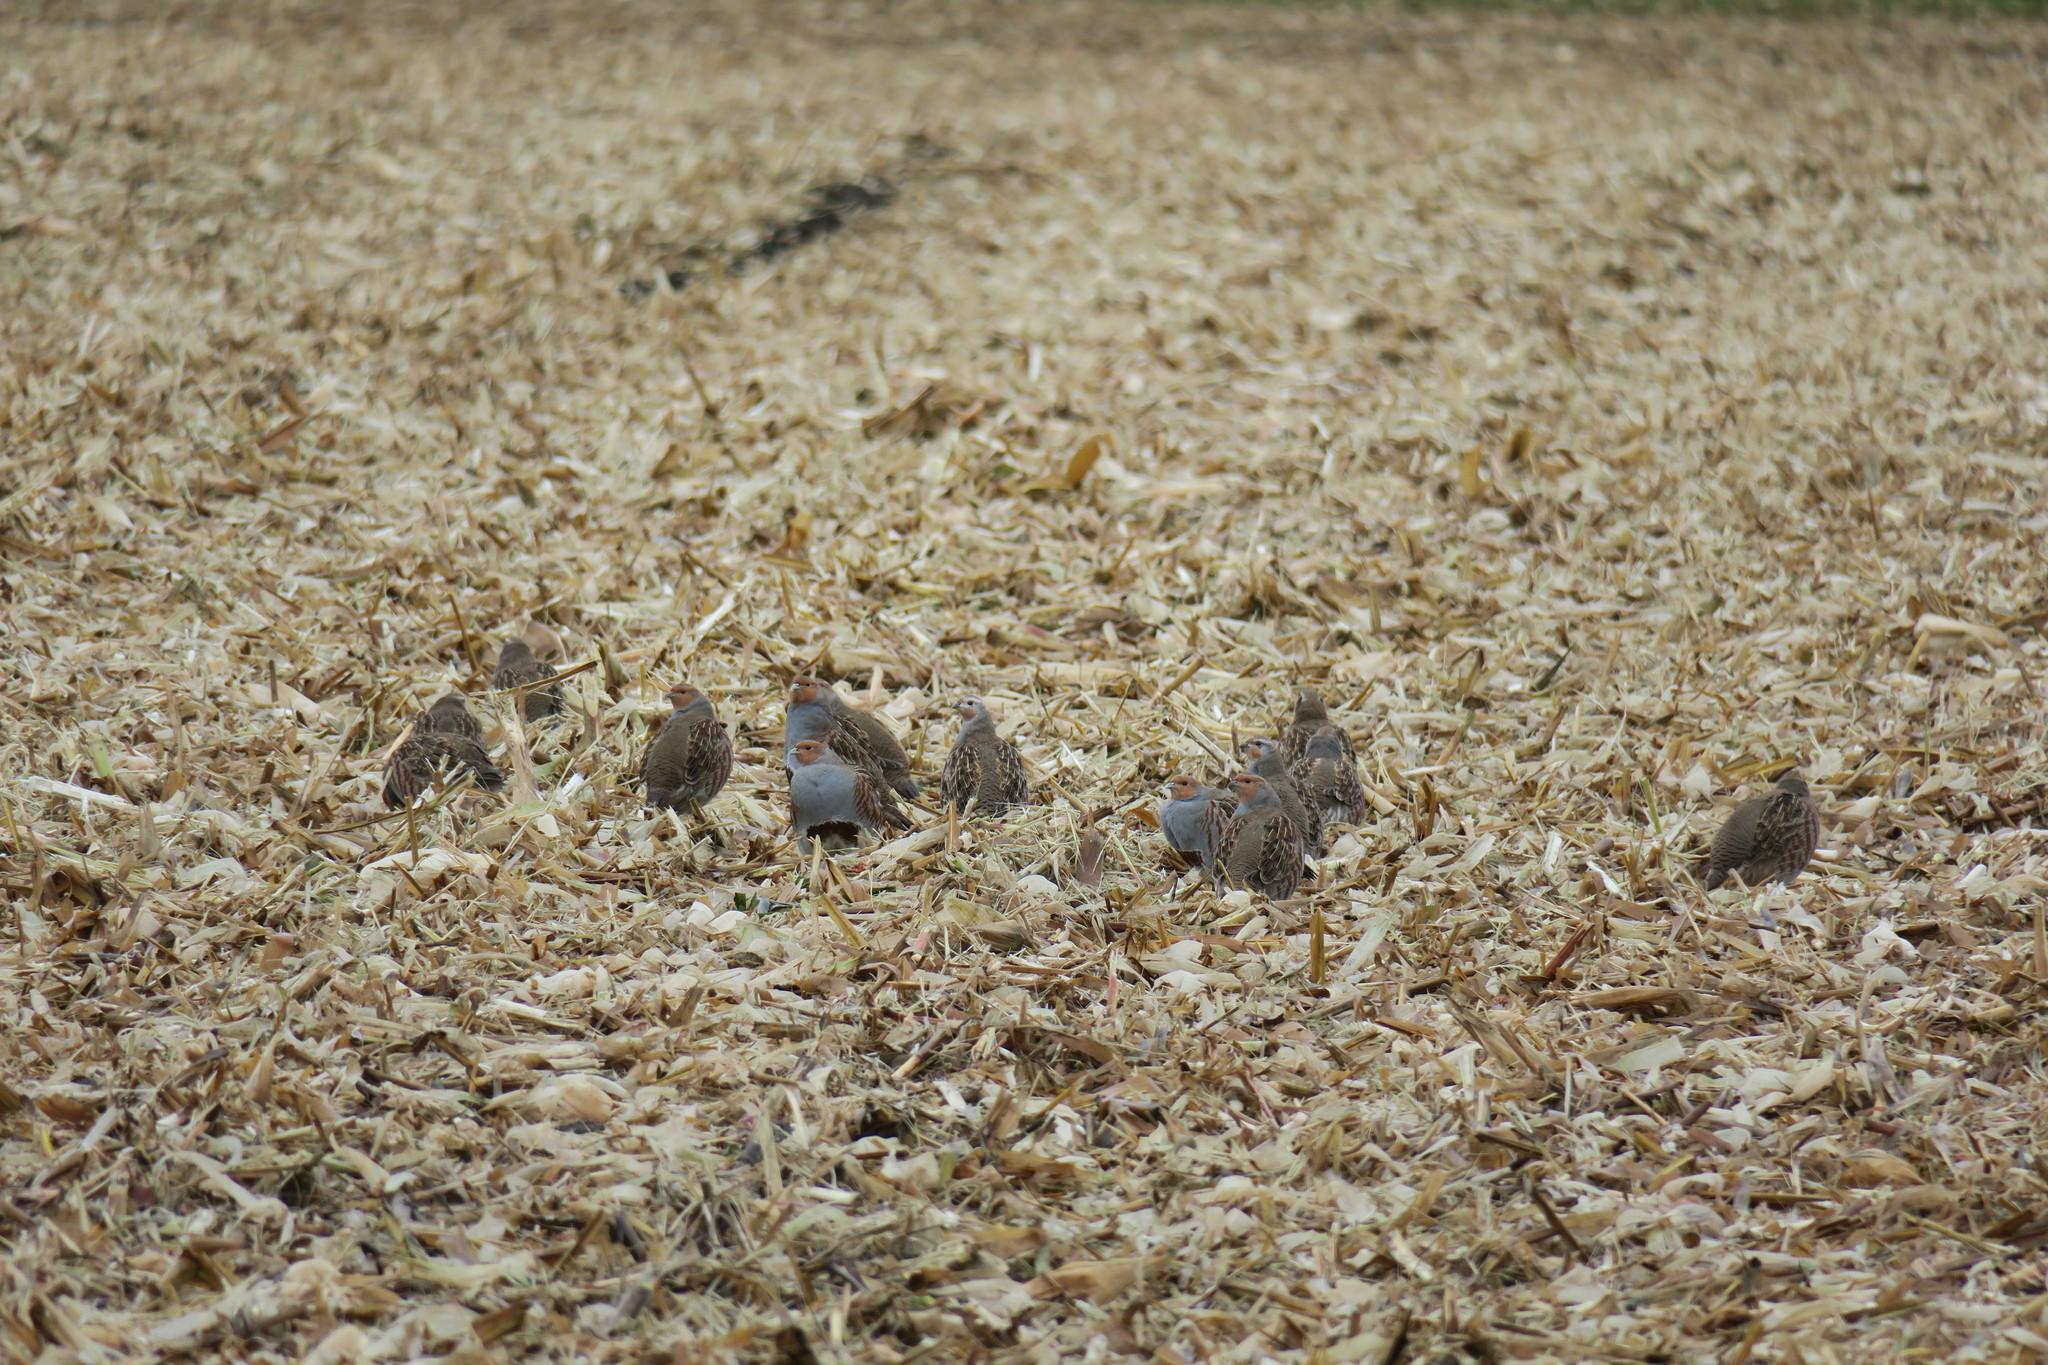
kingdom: Animalia
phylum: Chordata
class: Aves
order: Galliformes
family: Phasianidae
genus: Perdix
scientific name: Perdix perdix
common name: Grey partridge
